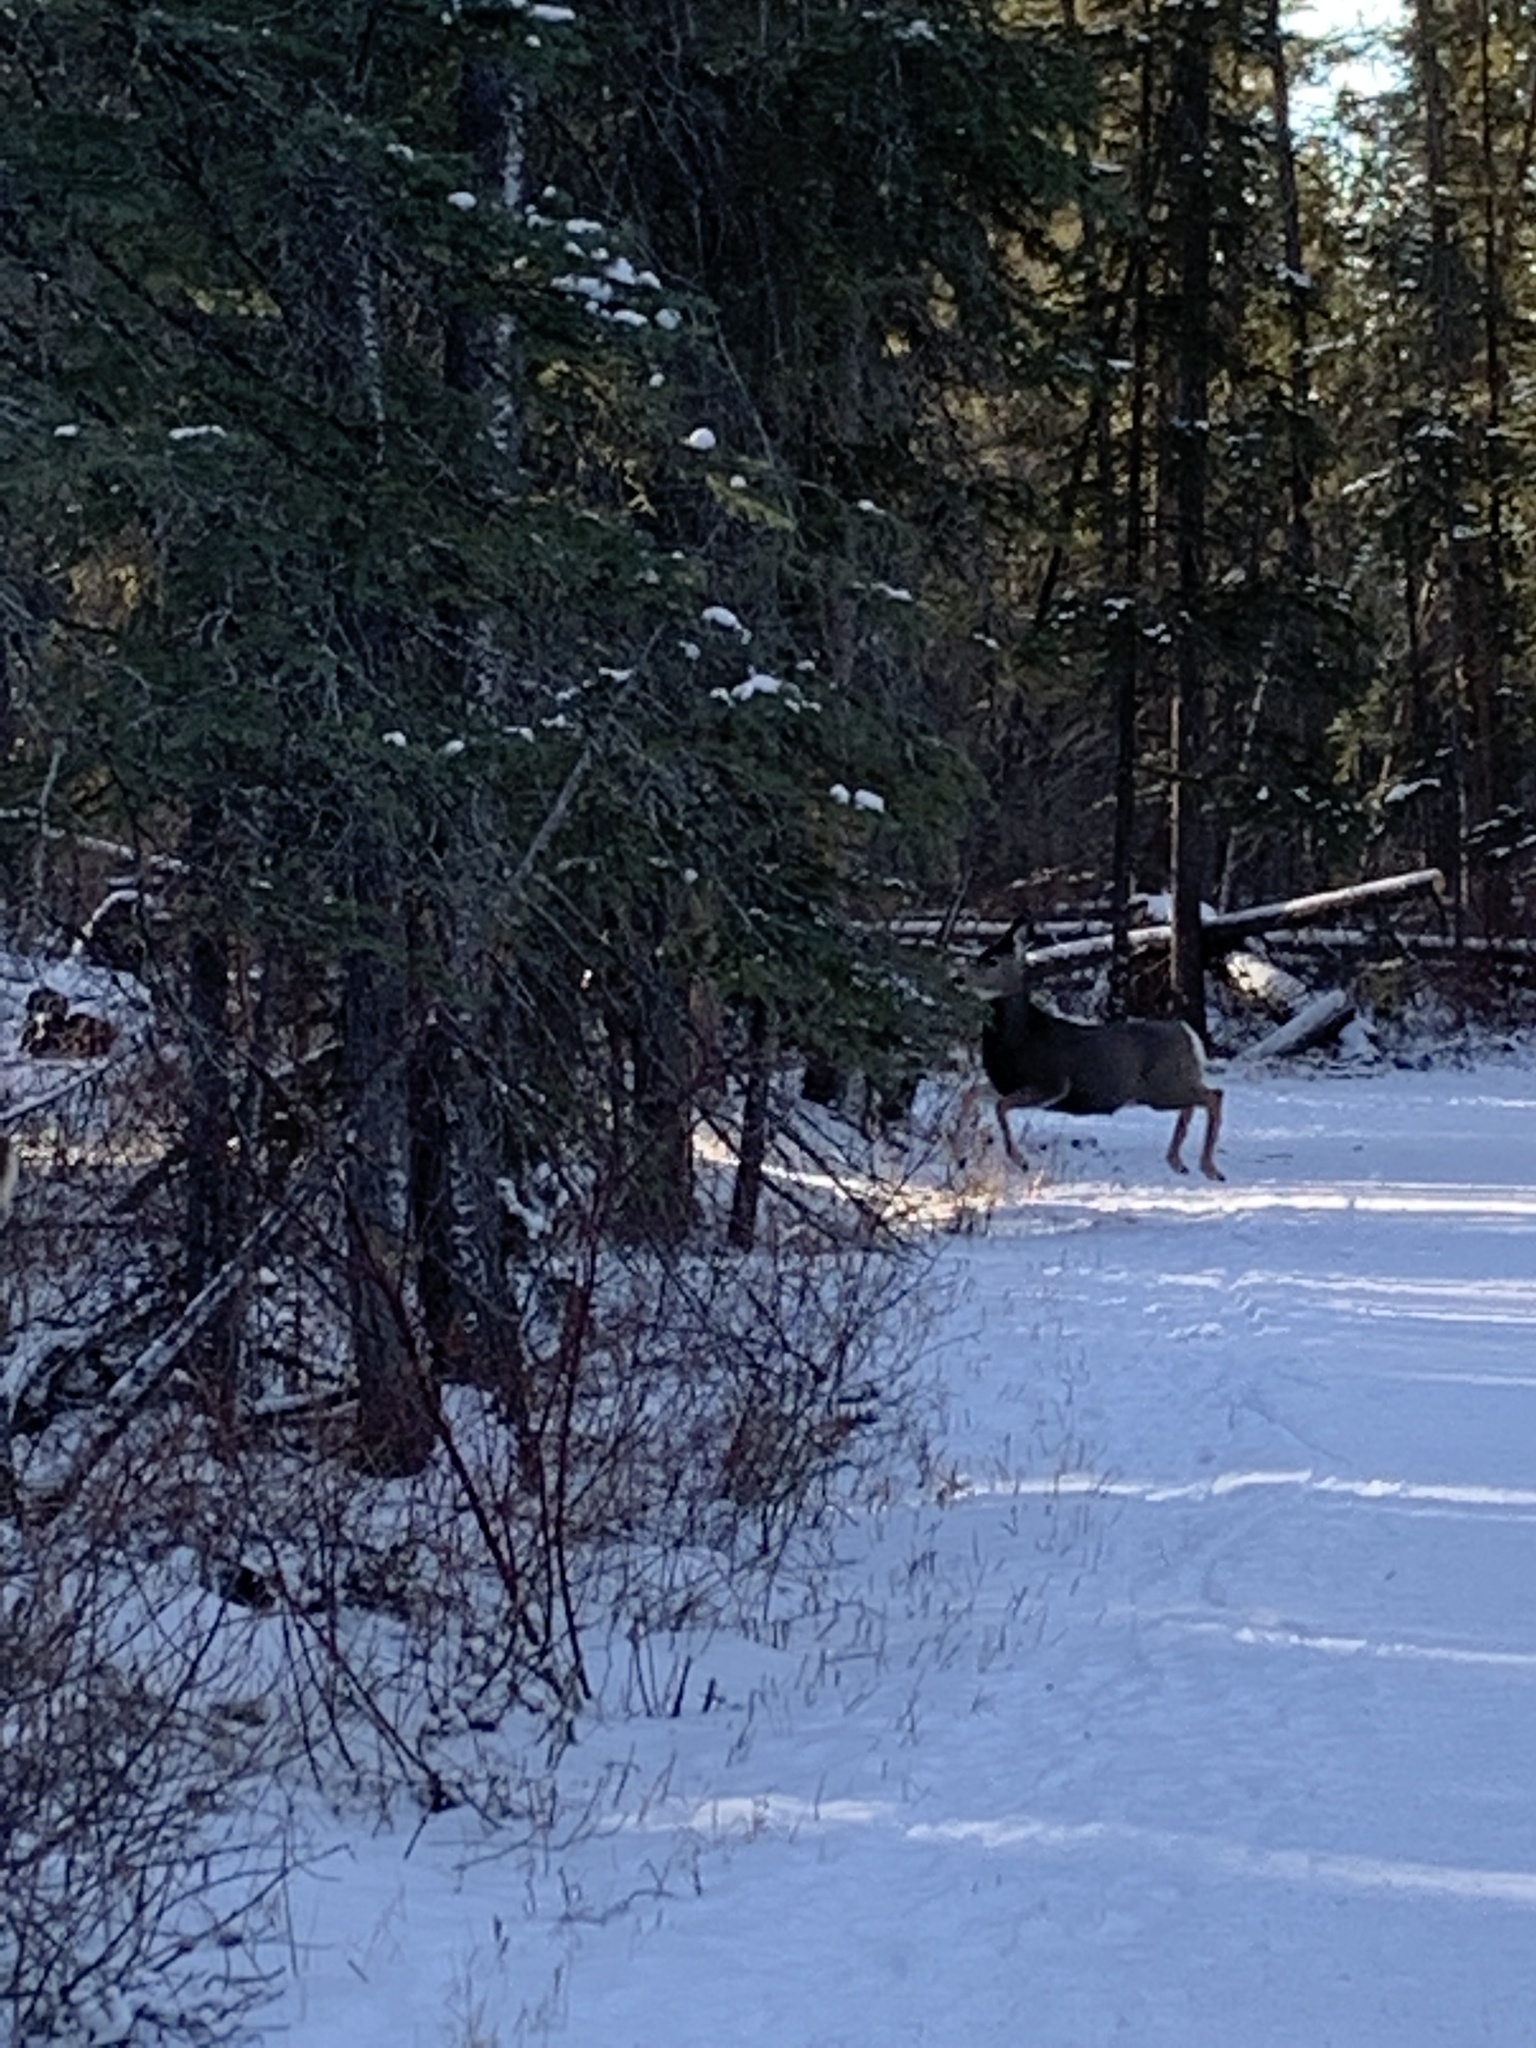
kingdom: Animalia
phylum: Chordata
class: Mammalia
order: Artiodactyla
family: Cervidae
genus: Odocoileus
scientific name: Odocoileus hemionus
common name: Mule deer
